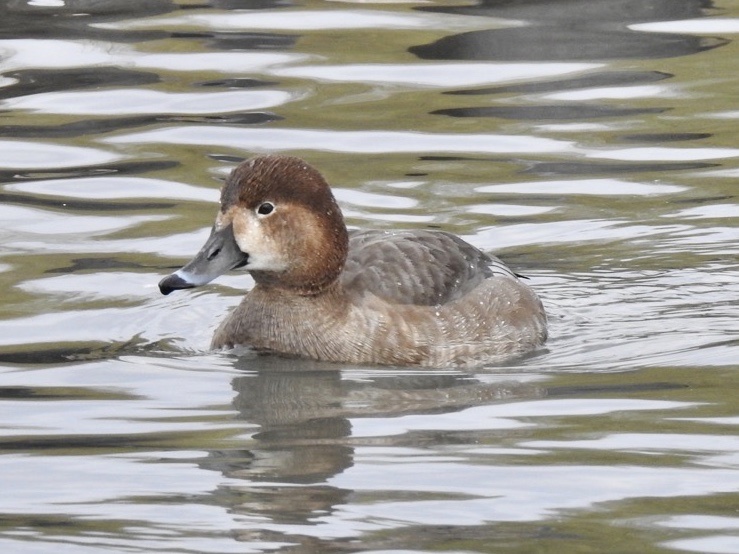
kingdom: Animalia
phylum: Chordata
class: Aves
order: Anseriformes
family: Anatidae
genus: Aythya
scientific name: Aythya americana
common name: Redhead
